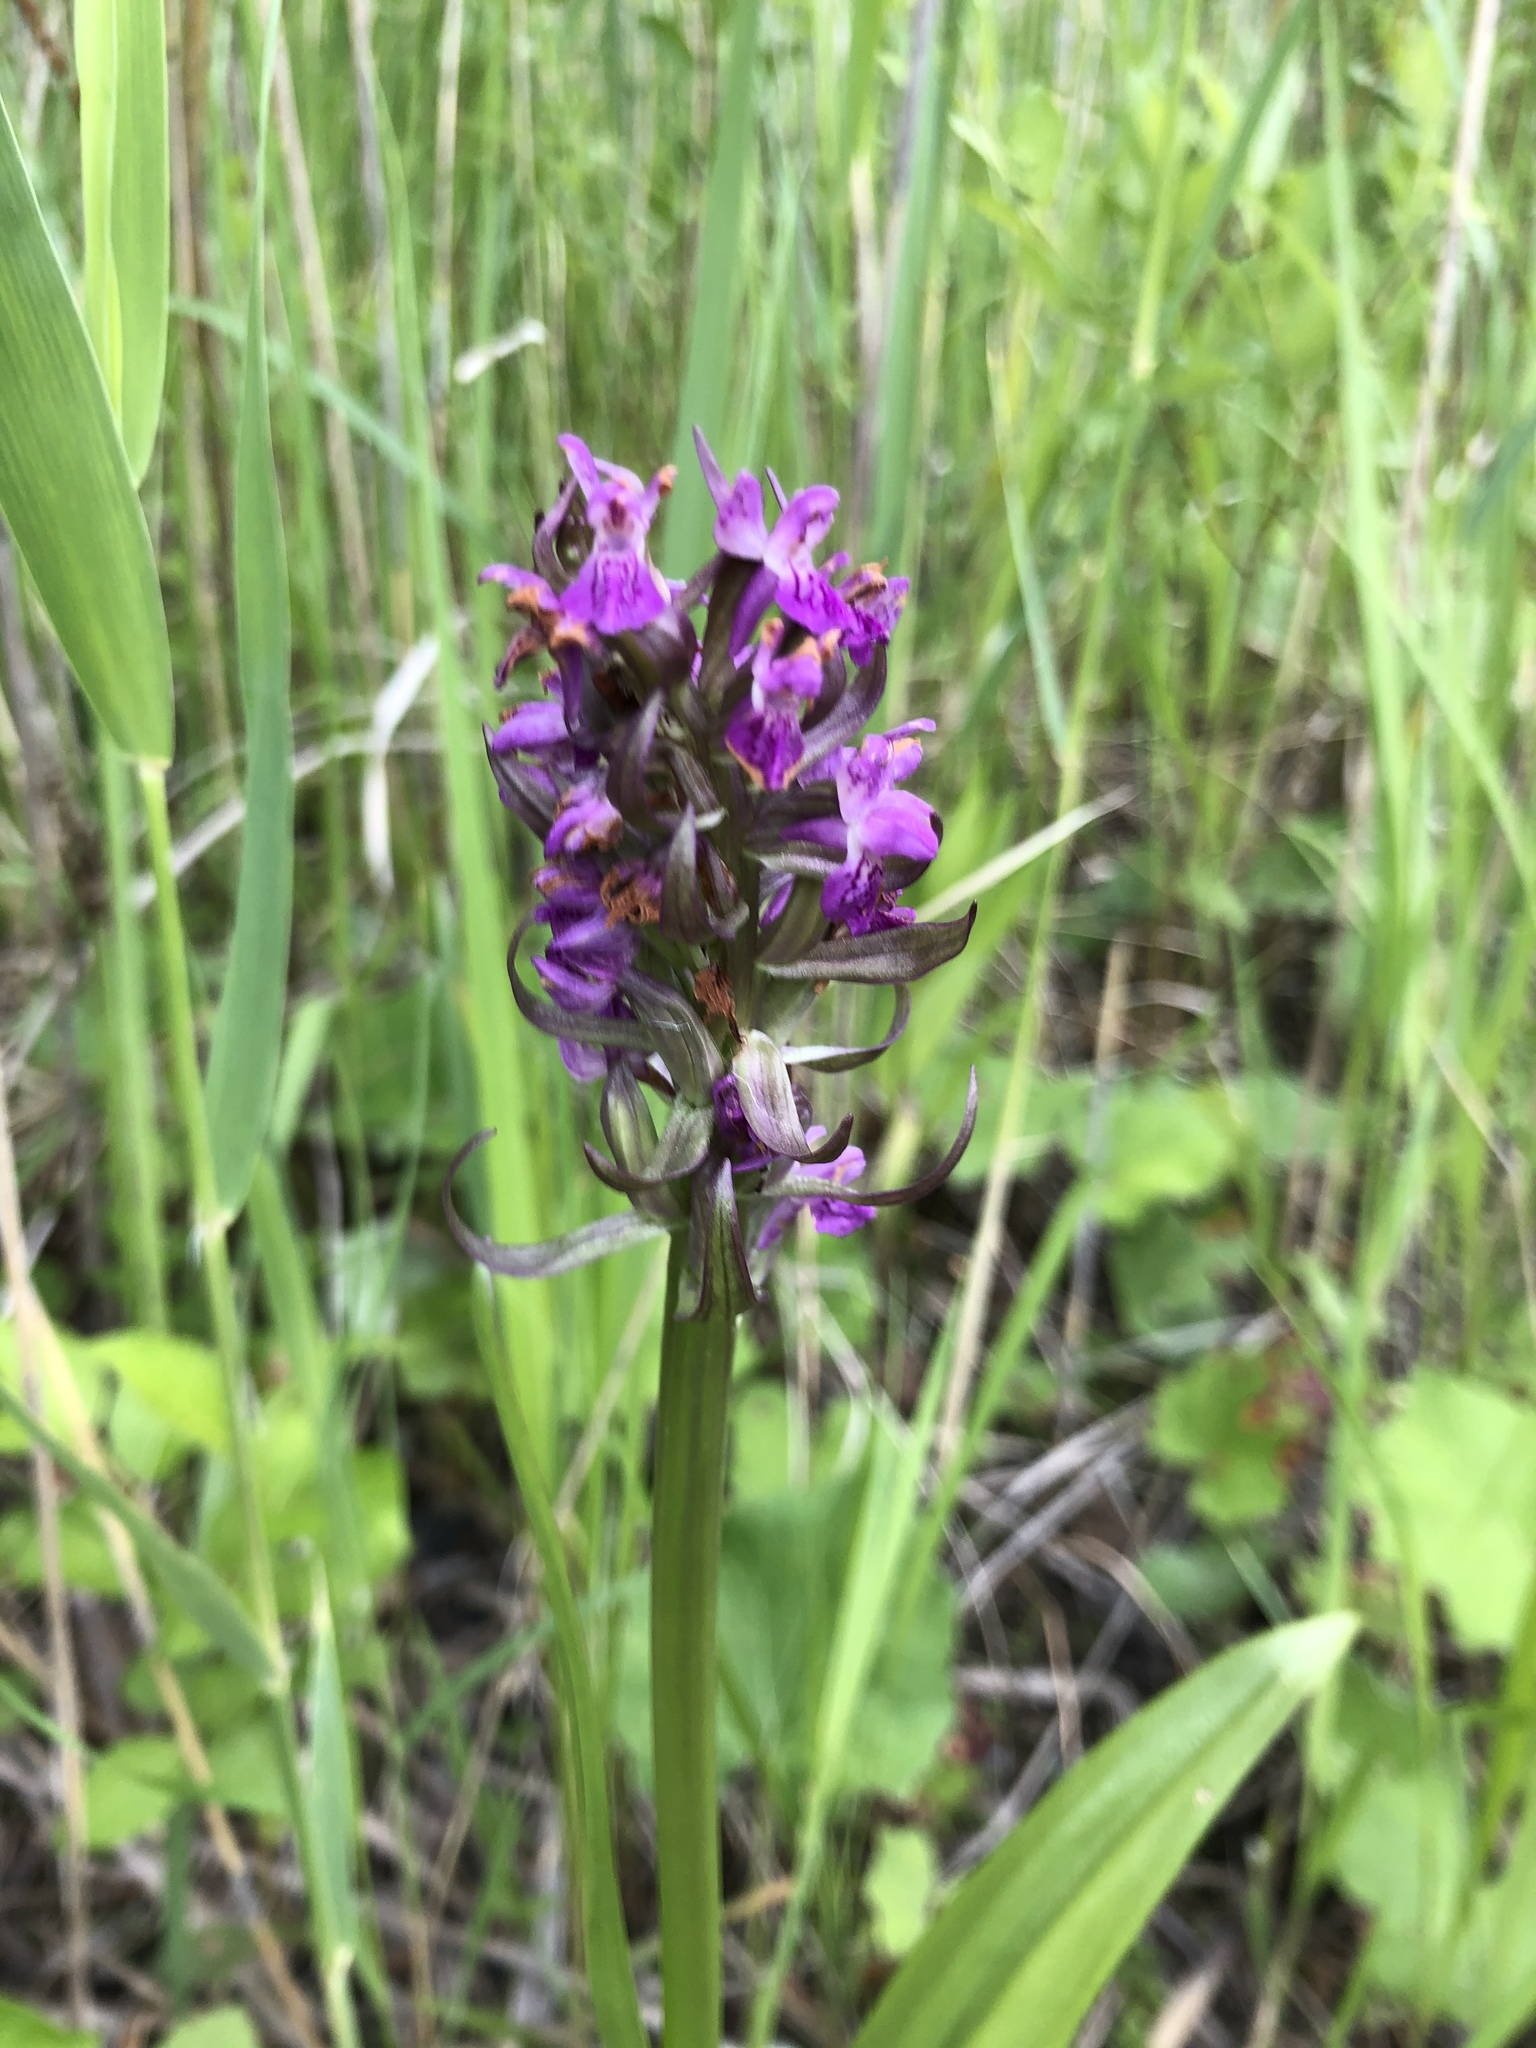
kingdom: Plantae
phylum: Tracheophyta
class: Liliopsida
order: Asparagales
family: Orchidaceae
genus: Dactylorhiza
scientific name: Dactylorhiza incarnata
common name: Early marsh-orchid
